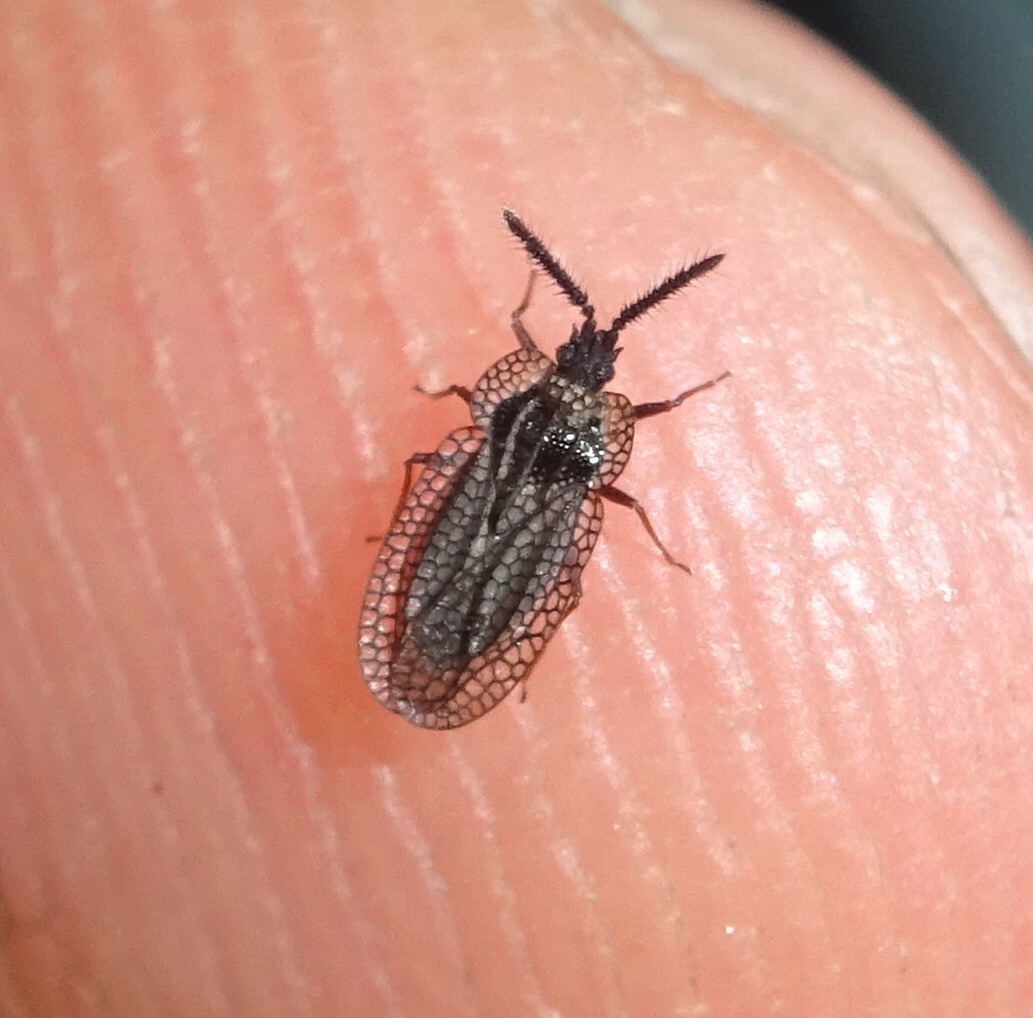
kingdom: Animalia
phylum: Arthropoda
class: Insecta
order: Hemiptera
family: Tingidae
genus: Dictyonota
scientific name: Dictyonota tricornis
